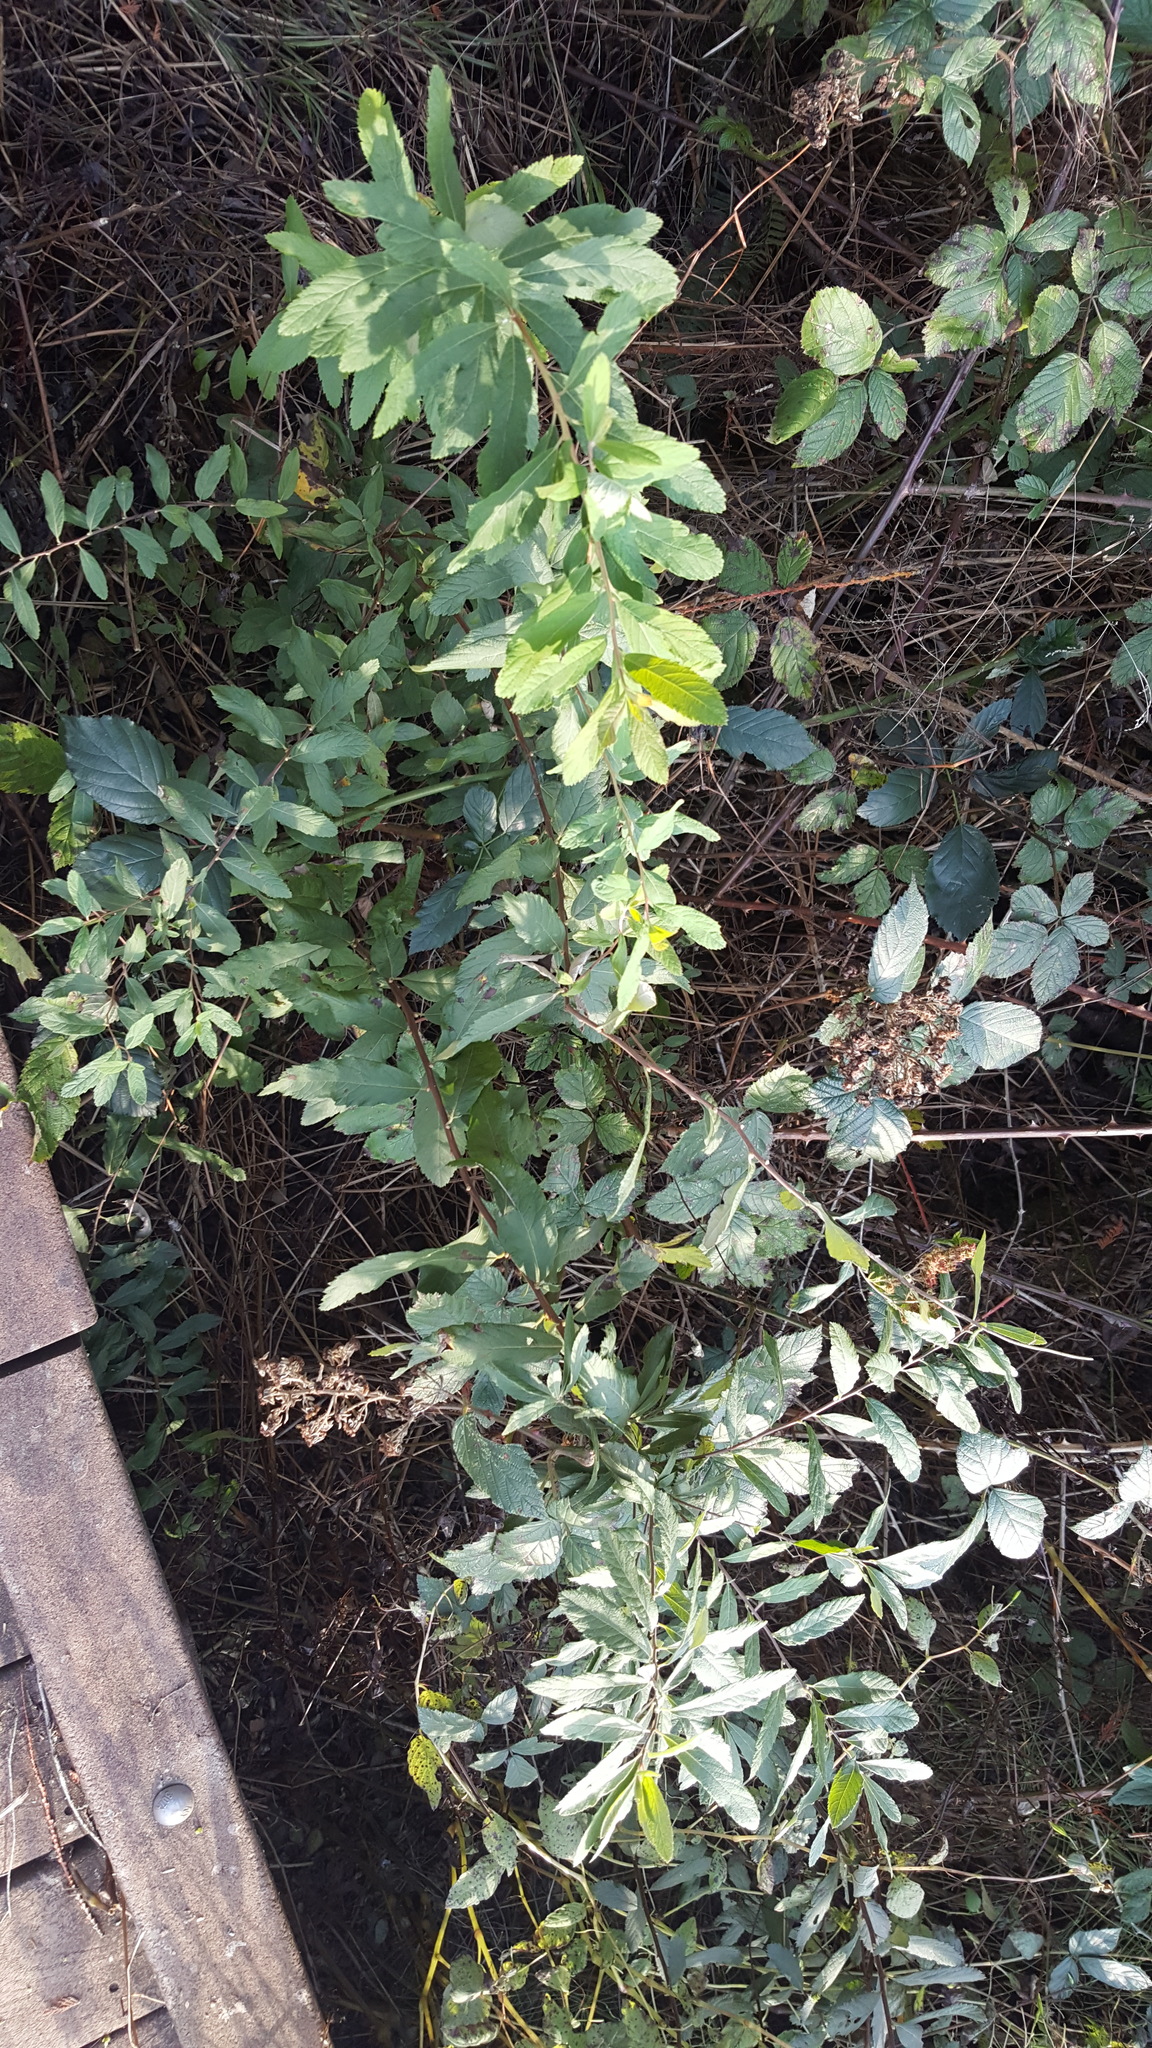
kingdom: Plantae
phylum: Tracheophyta
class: Magnoliopsida
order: Rosales
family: Rosaceae
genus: Spiraea
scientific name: Spiraea douglasii
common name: Steeplebush
